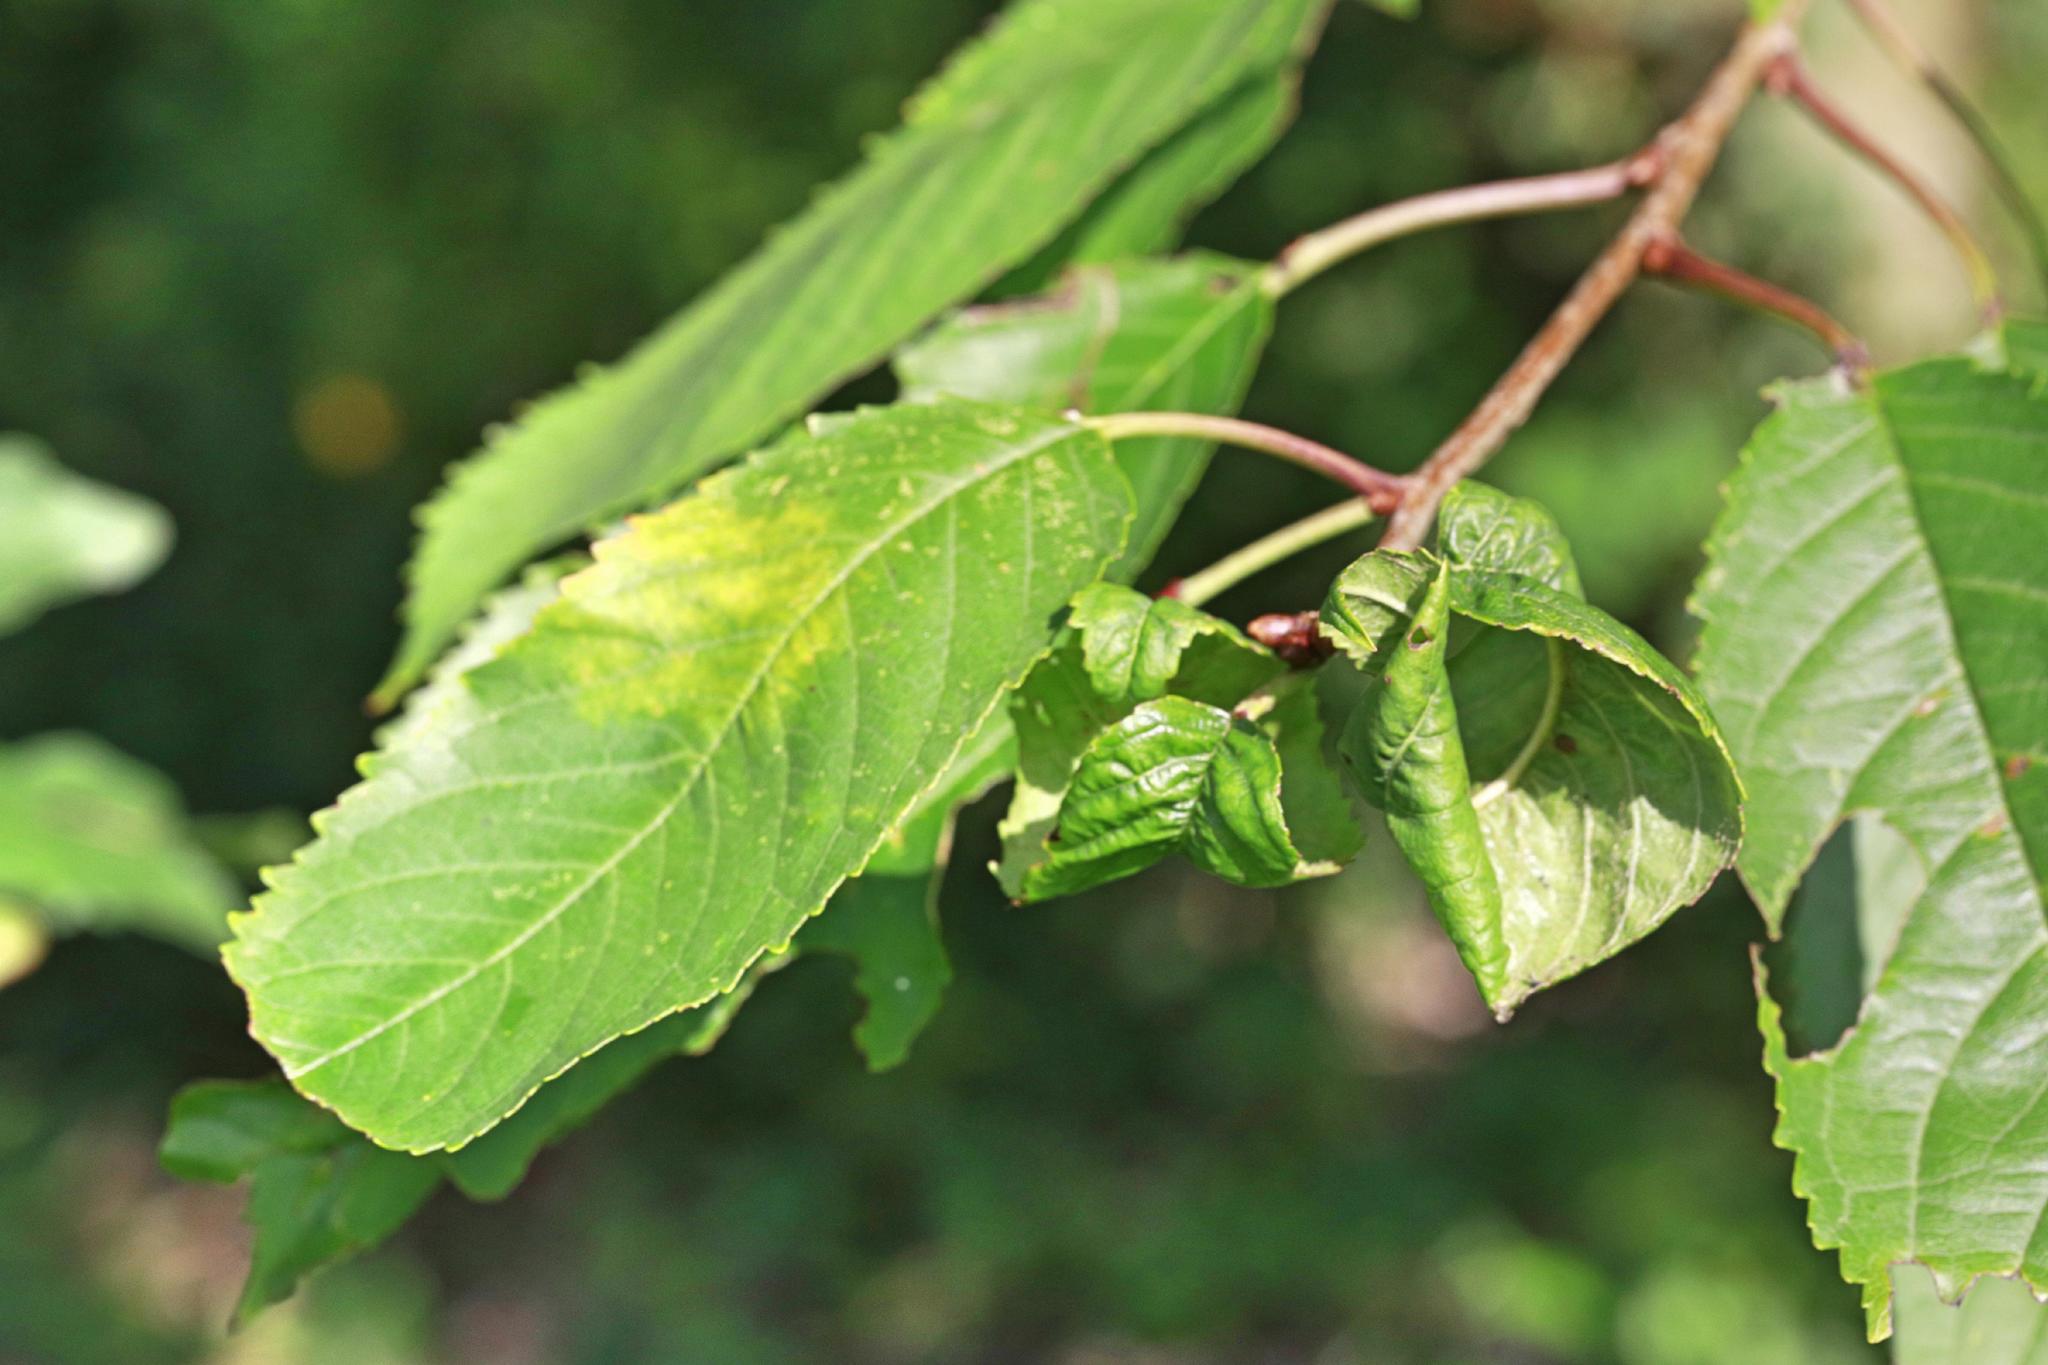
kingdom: Animalia
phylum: Arthropoda
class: Insecta
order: Hemiptera
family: Aphididae
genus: Myzus
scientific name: Myzus cerasi
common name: Black cherry aphid
